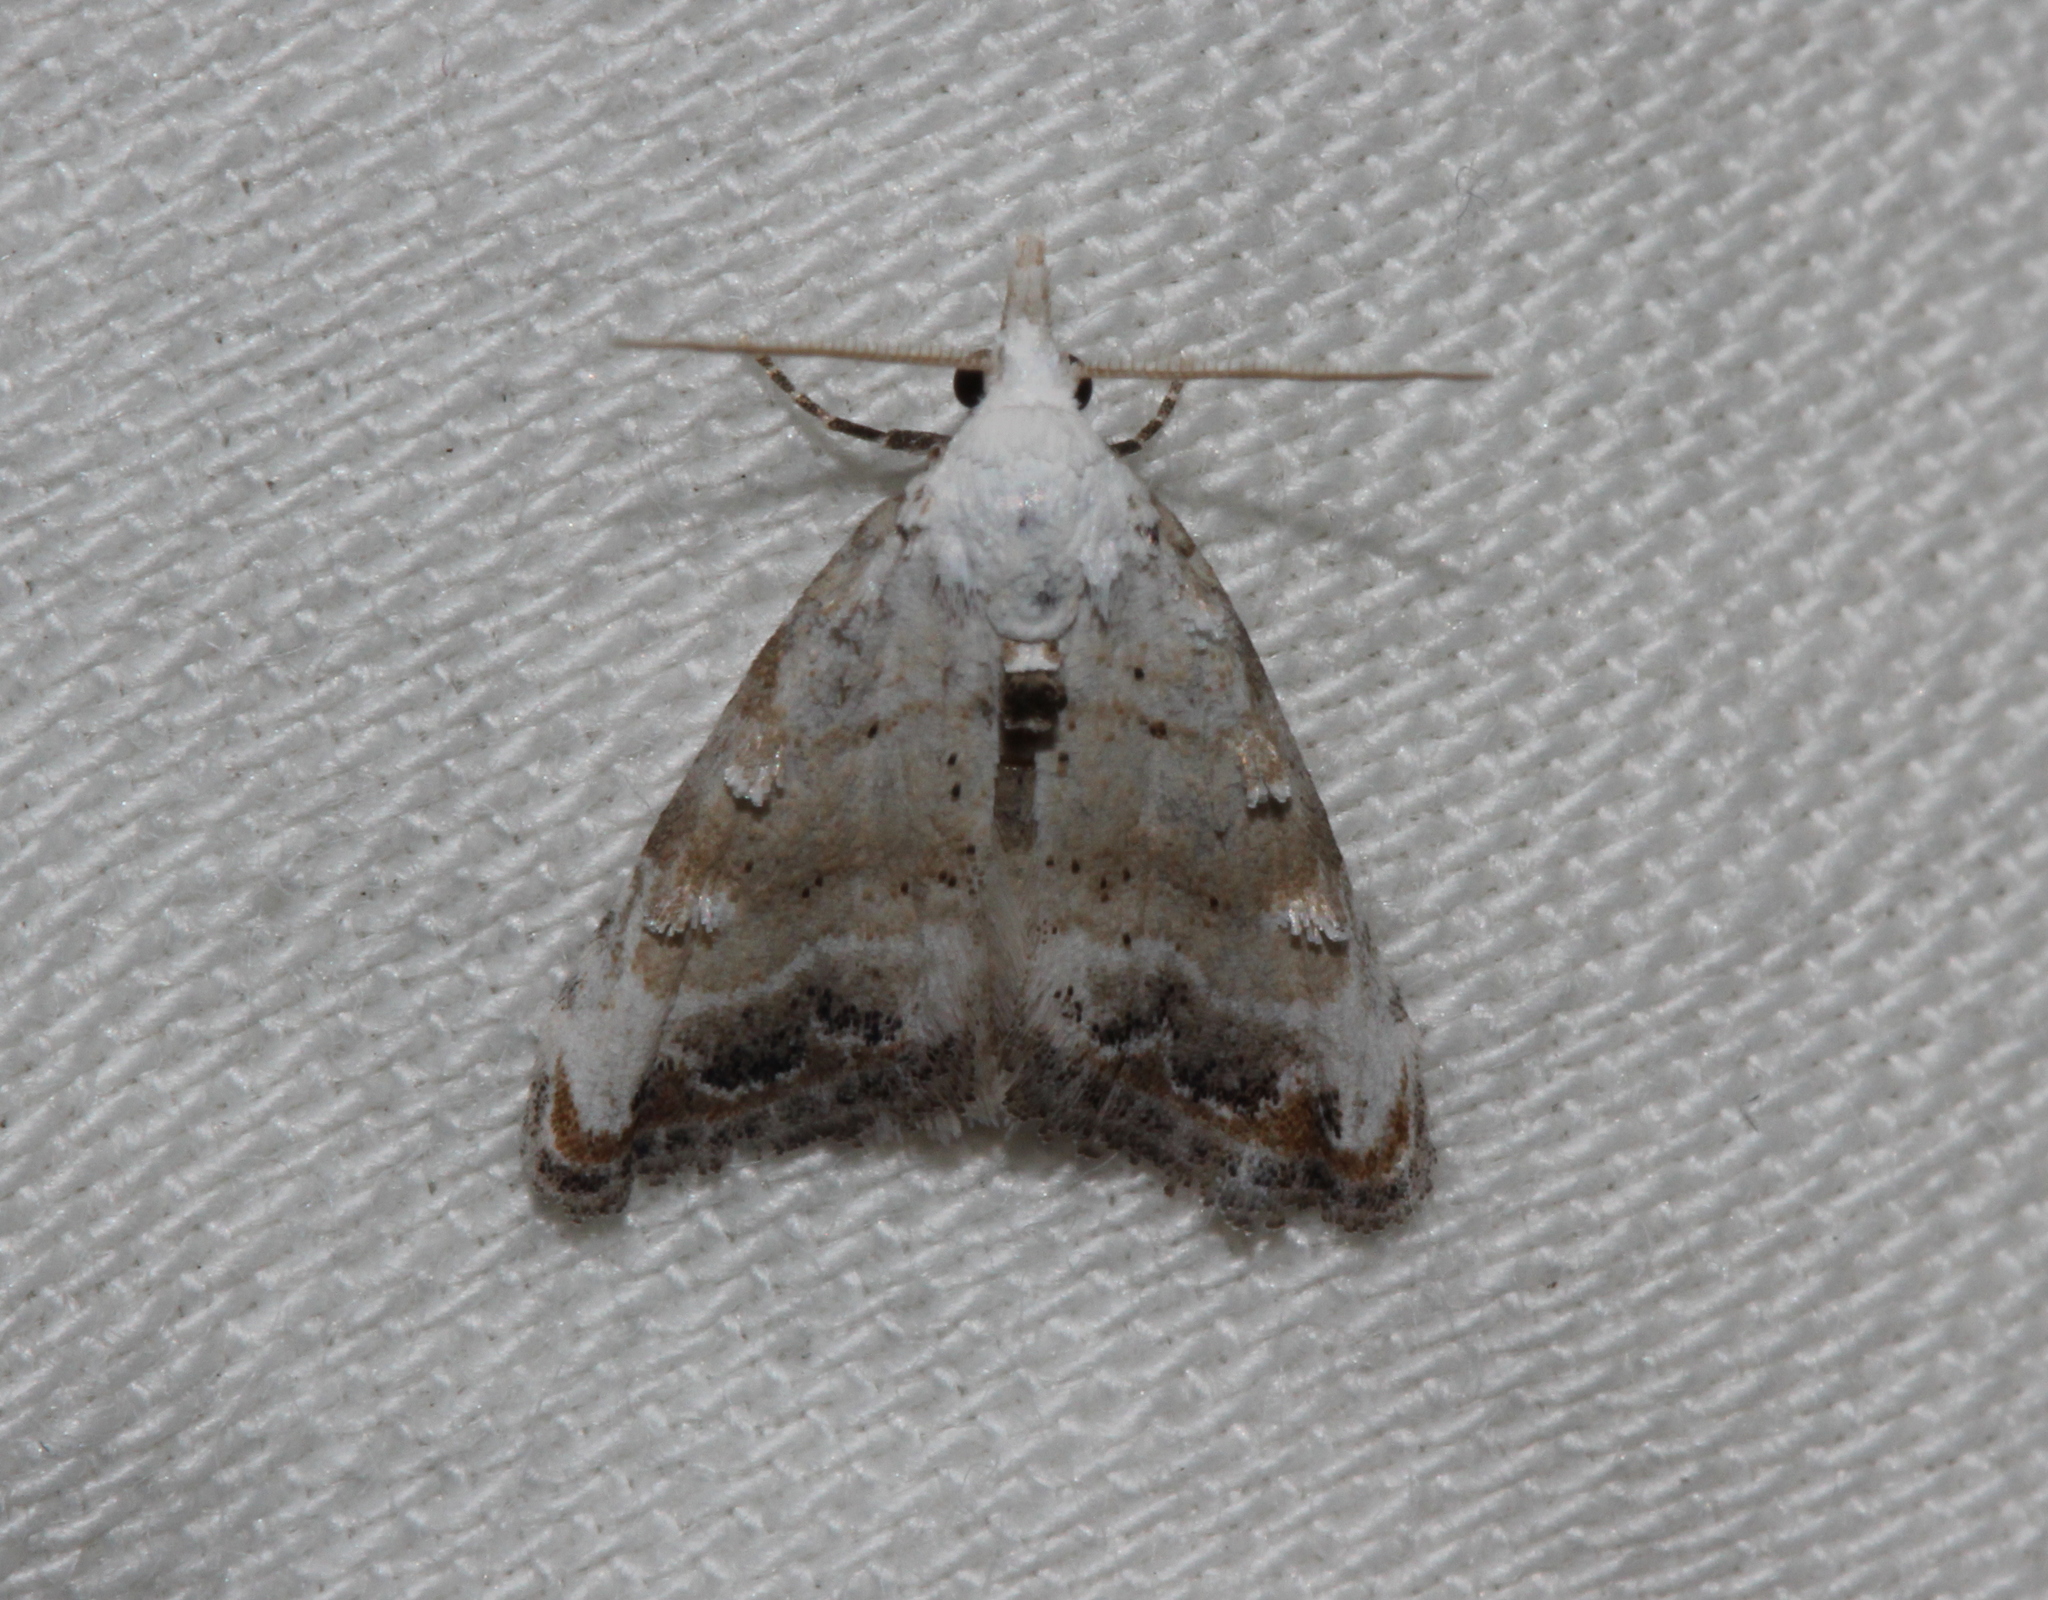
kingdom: Animalia
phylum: Arthropoda
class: Insecta
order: Lepidoptera
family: Nolidae
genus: Nola
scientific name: Nola infantula
